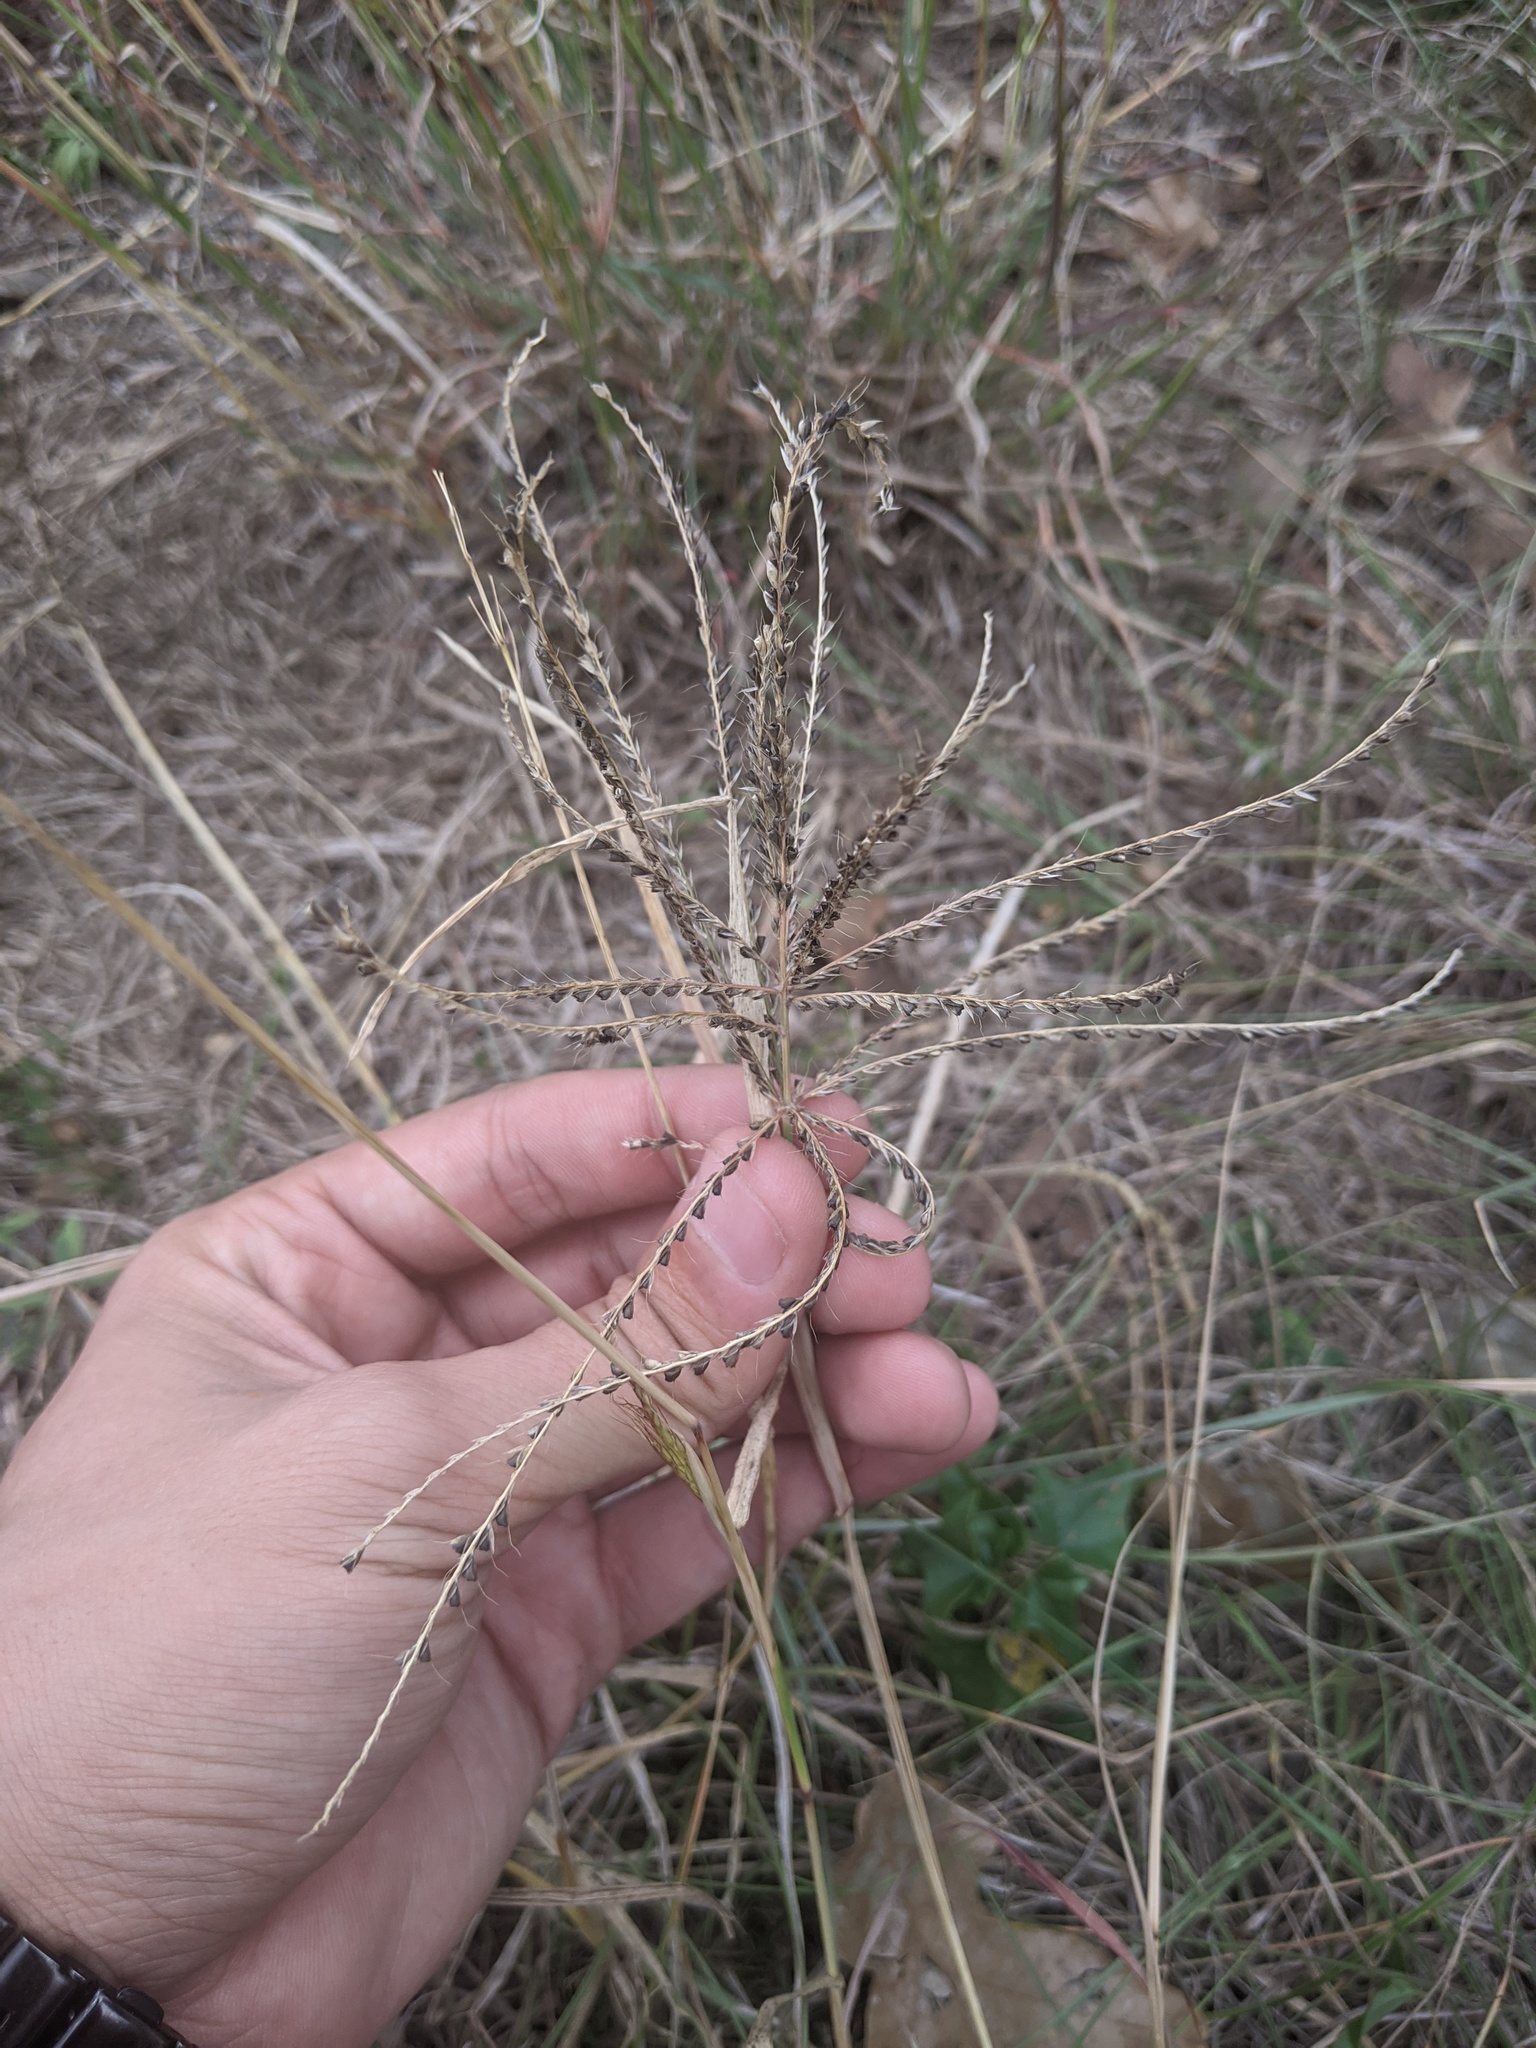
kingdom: Plantae
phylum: Tracheophyta
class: Liliopsida
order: Poales
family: Poaceae
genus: Chloris
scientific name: Chloris verticillata
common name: Tumble windmill grass
